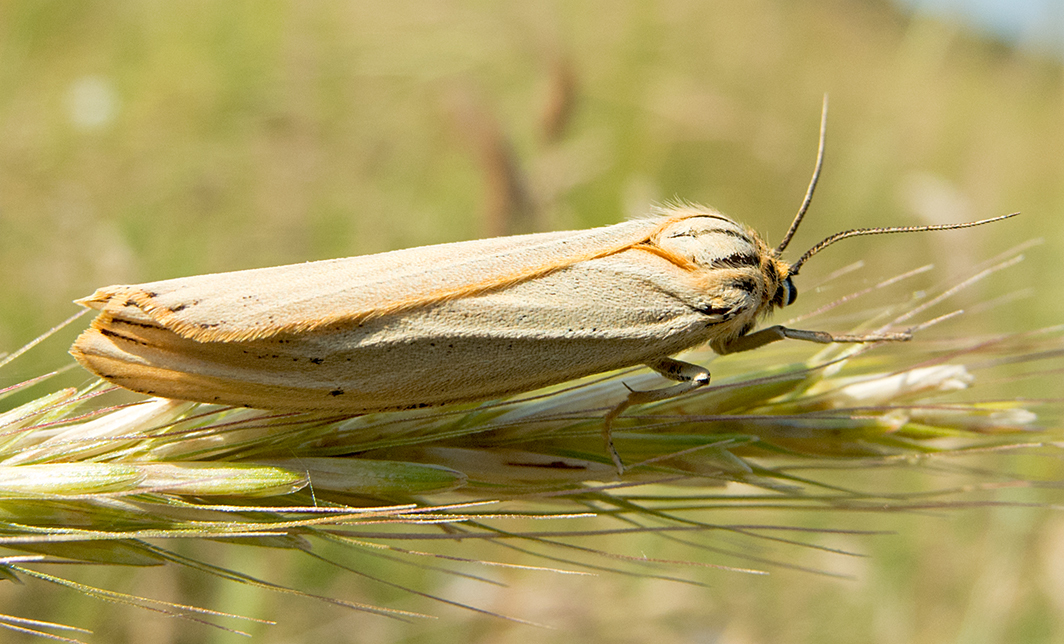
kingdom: Animalia
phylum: Arthropoda
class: Insecta
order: Lepidoptera
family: Erebidae
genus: Coscinia
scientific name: Coscinia Spiris striata
